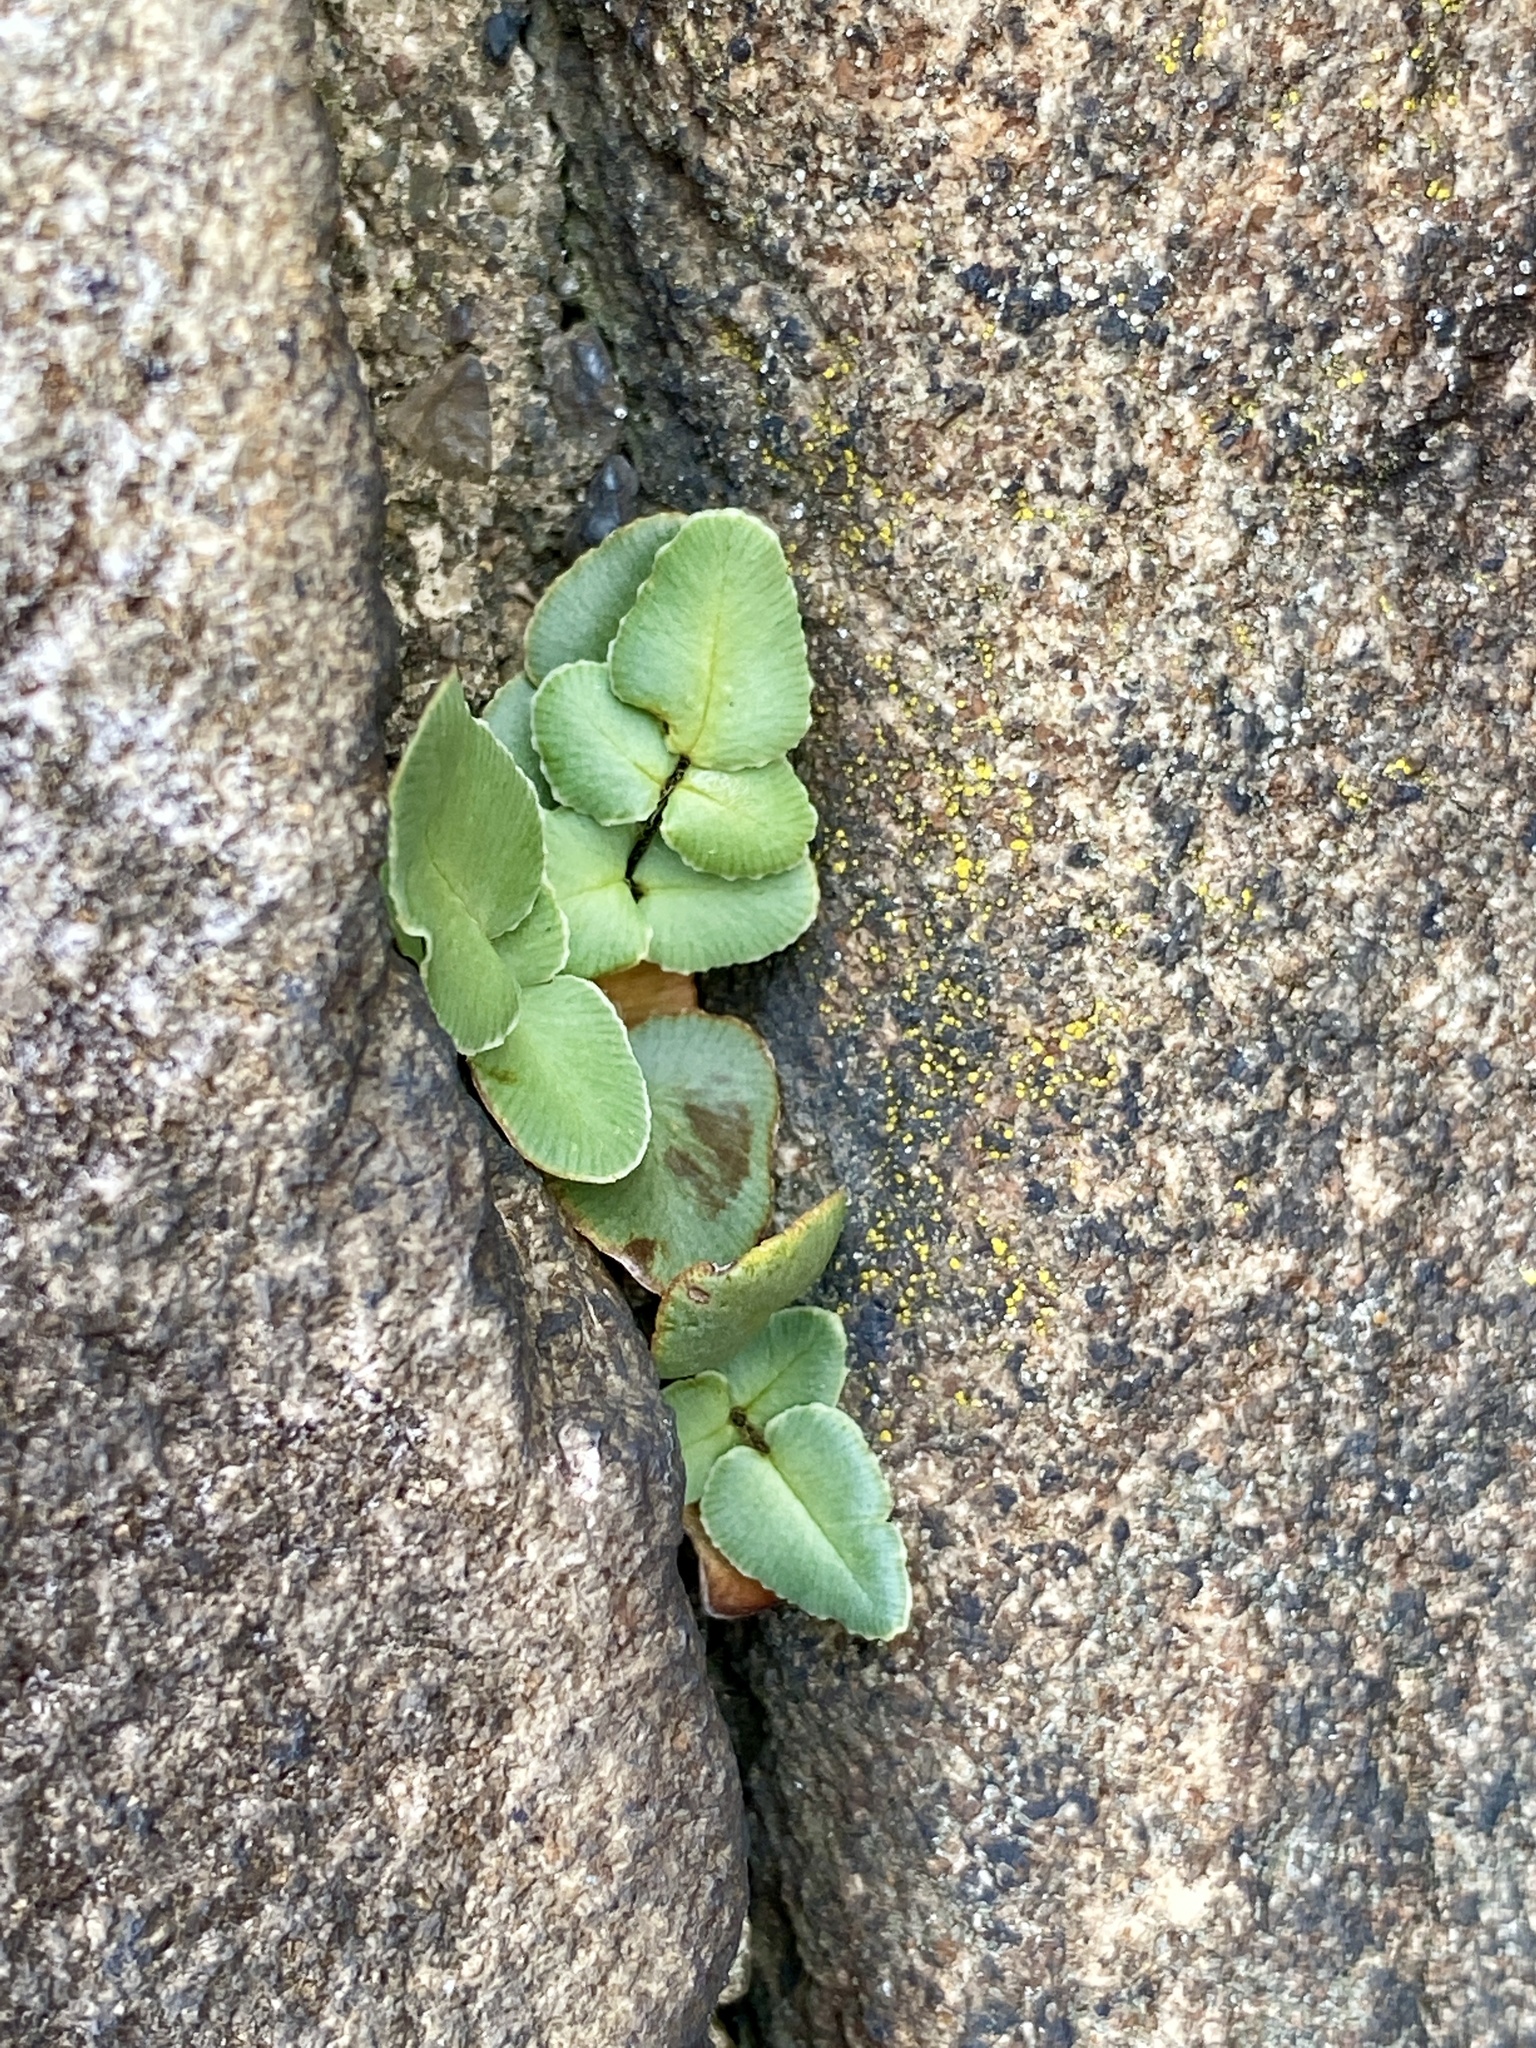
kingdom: Plantae
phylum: Tracheophyta
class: Polypodiopsida
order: Polypodiales
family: Pteridaceae
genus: Pellaea
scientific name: Pellaea atropurpurea
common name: Hairy cliffbrake
